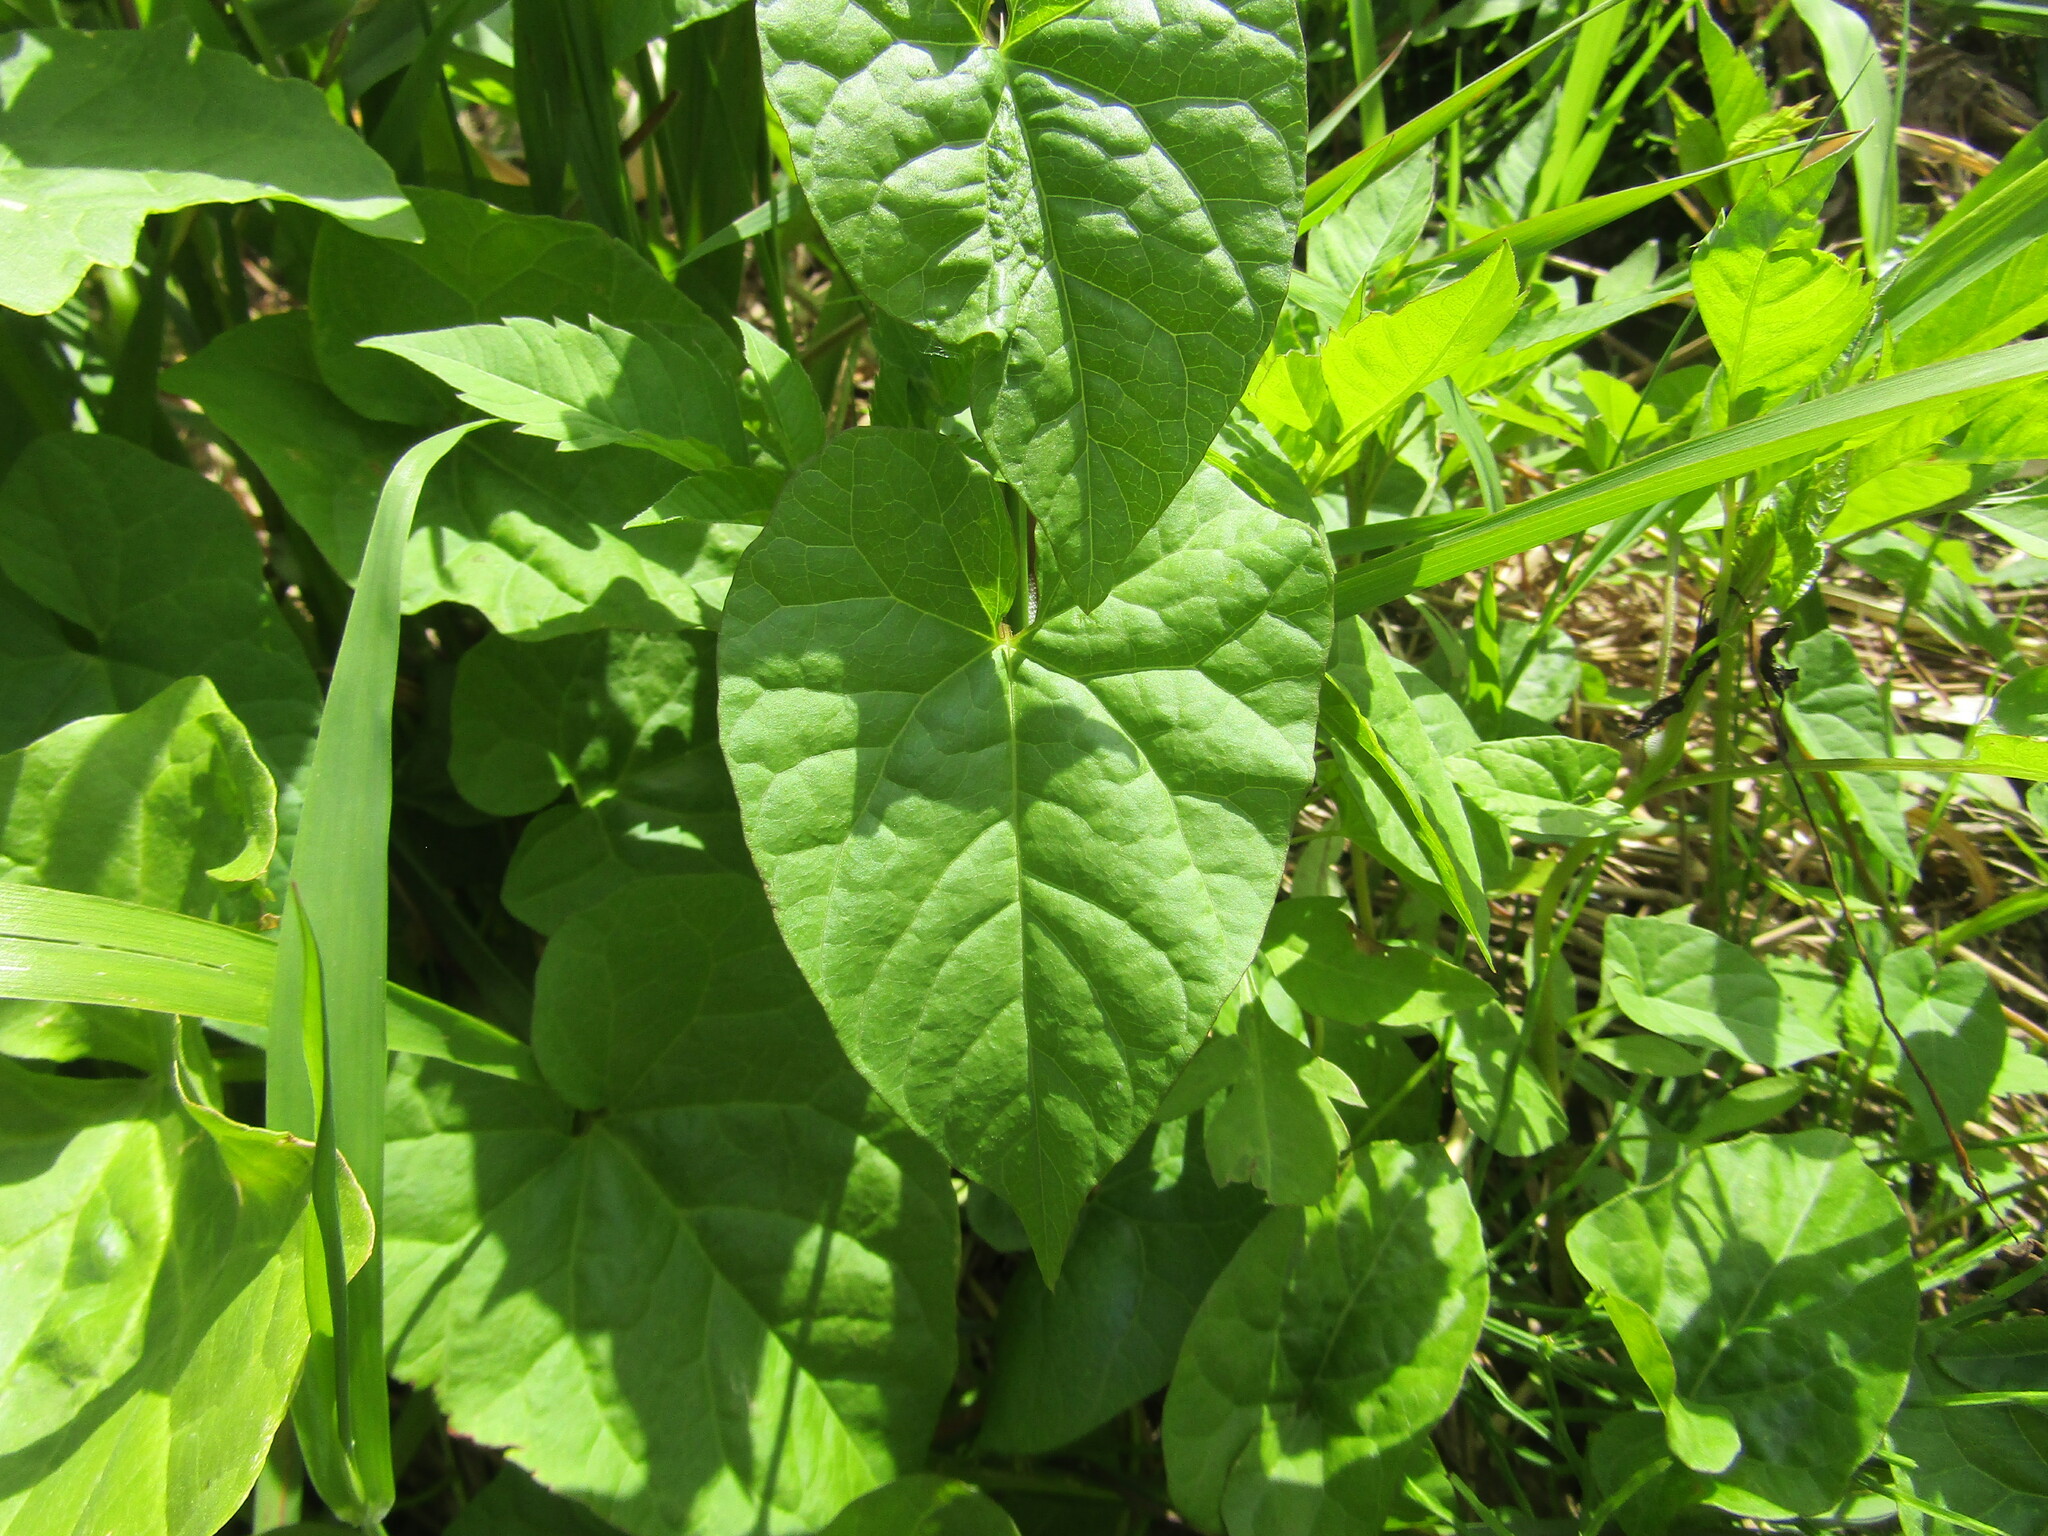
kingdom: Plantae
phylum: Tracheophyta
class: Magnoliopsida
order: Solanales
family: Convolvulaceae
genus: Calystegia
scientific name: Calystegia
